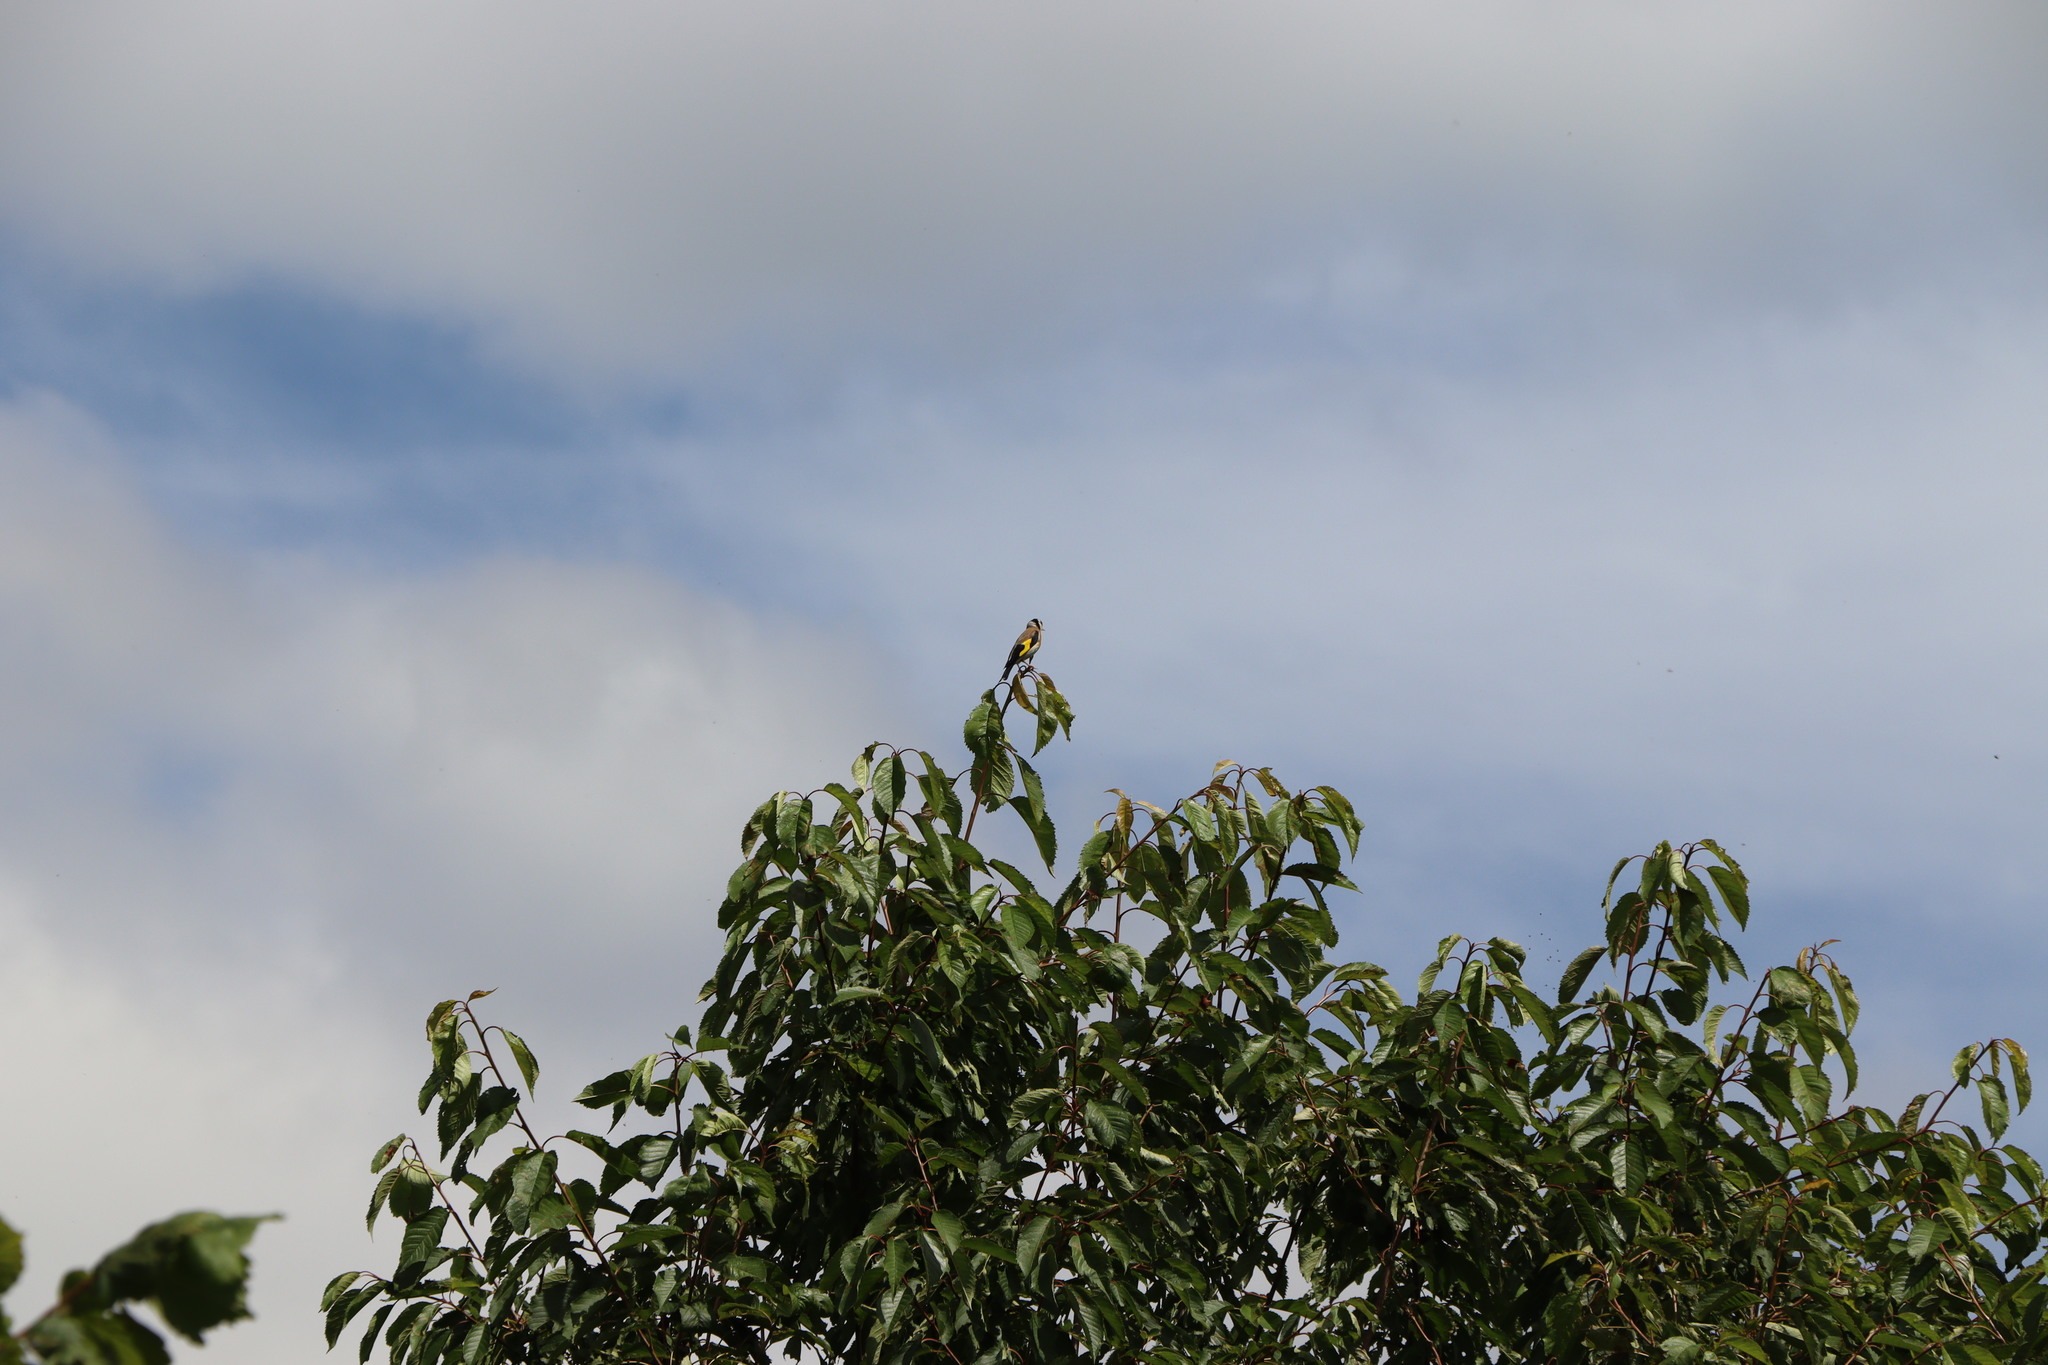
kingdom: Animalia
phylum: Chordata
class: Aves
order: Passeriformes
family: Fringillidae
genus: Carduelis
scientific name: Carduelis carduelis
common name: European goldfinch
